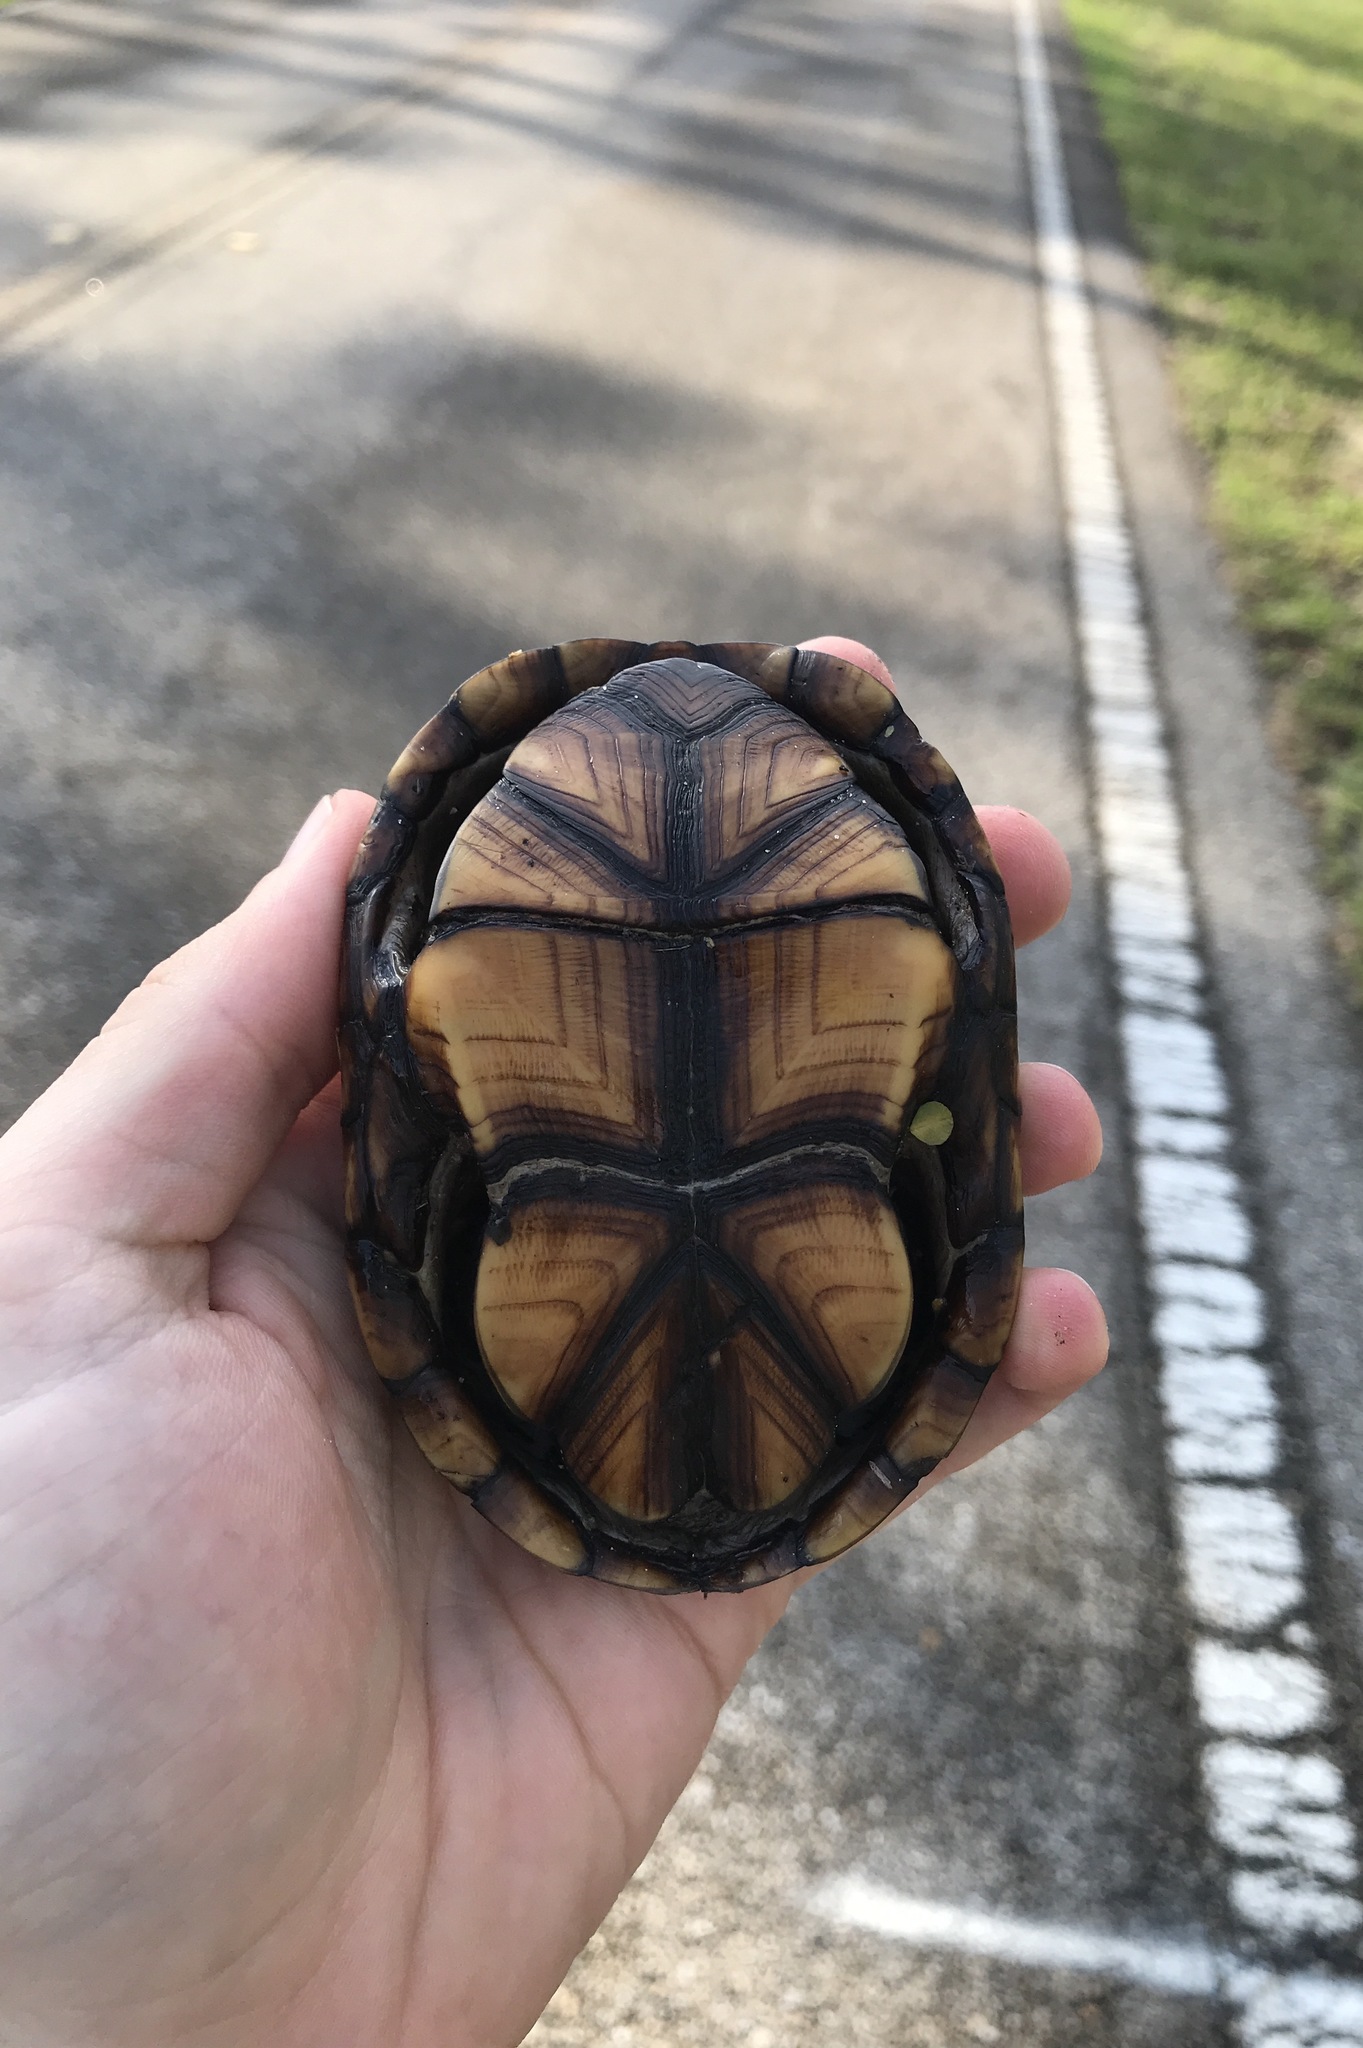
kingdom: Animalia
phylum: Chordata
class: Testudines
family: Kinosternidae
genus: Kinosternon
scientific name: Kinosternon subrubrum
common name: Eastern mud turtle
